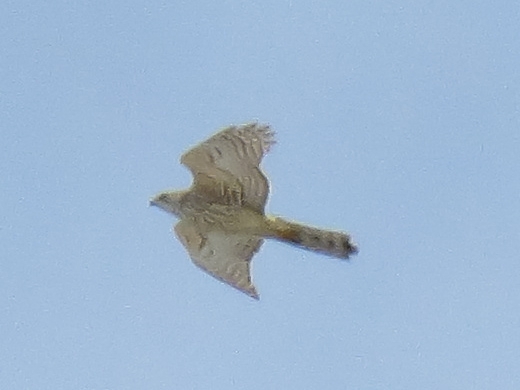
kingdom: Animalia
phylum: Chordata
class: Aves
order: Accipitriformes
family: Accipitridae
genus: Accipiter
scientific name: Accipiter gentilis
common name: Northern goshawk
